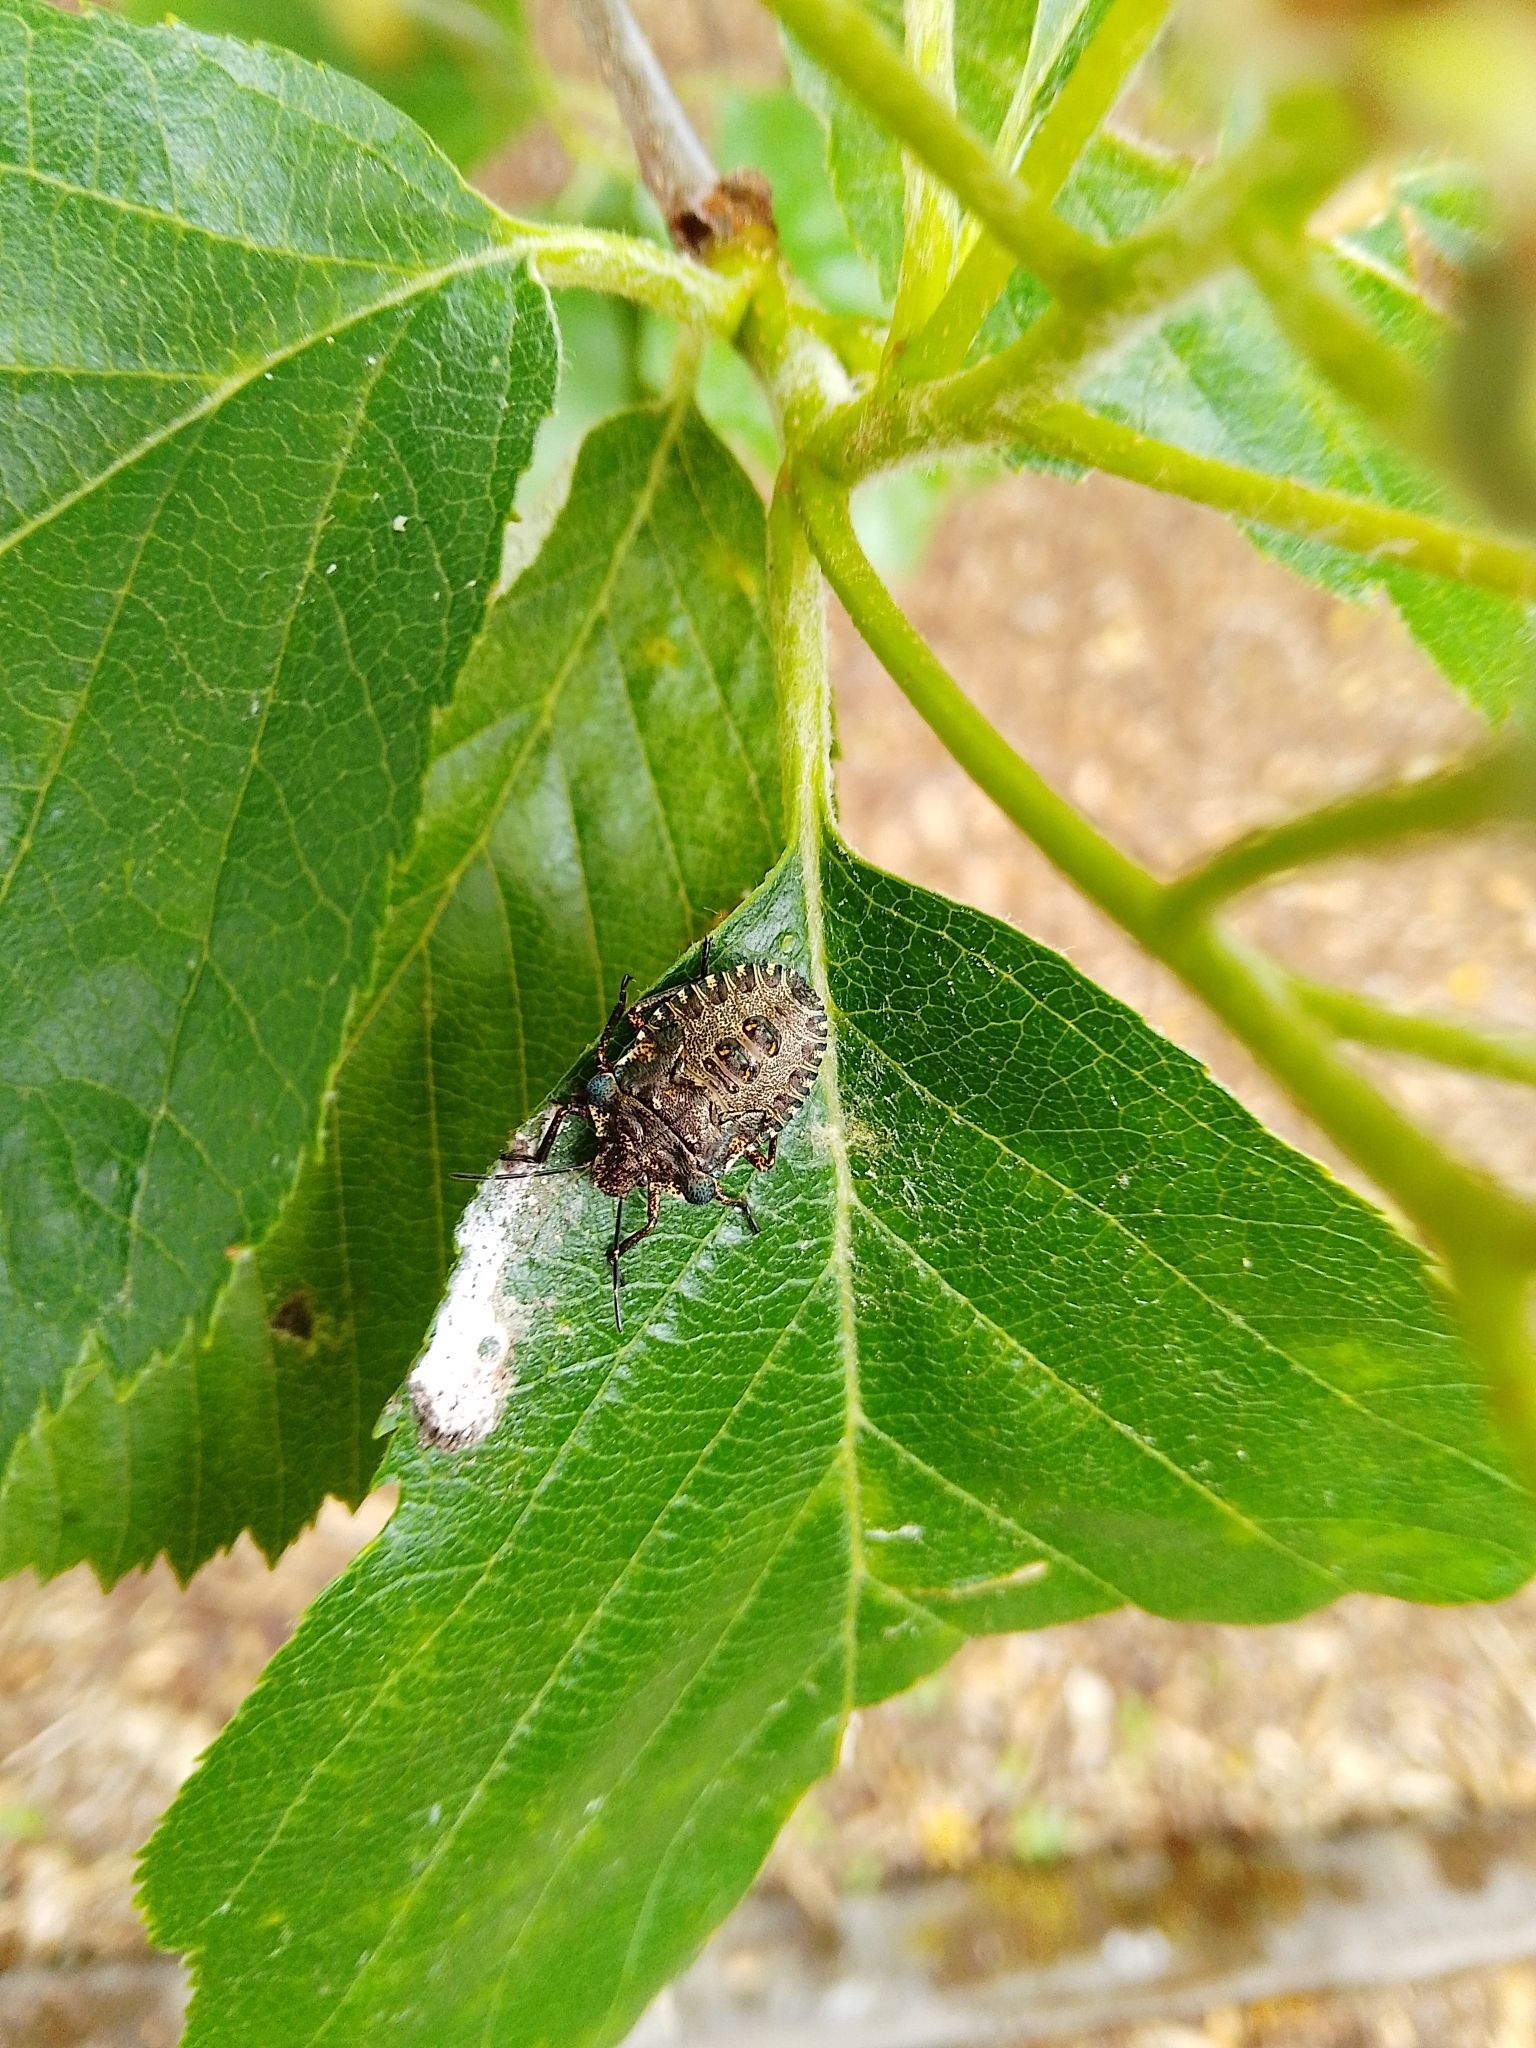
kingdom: Animalia
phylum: Arthropoda
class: Insecta
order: Hemiptera
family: Pentatomidae
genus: Pentatoma
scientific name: Pentatoma rufipes
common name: Forest bug
